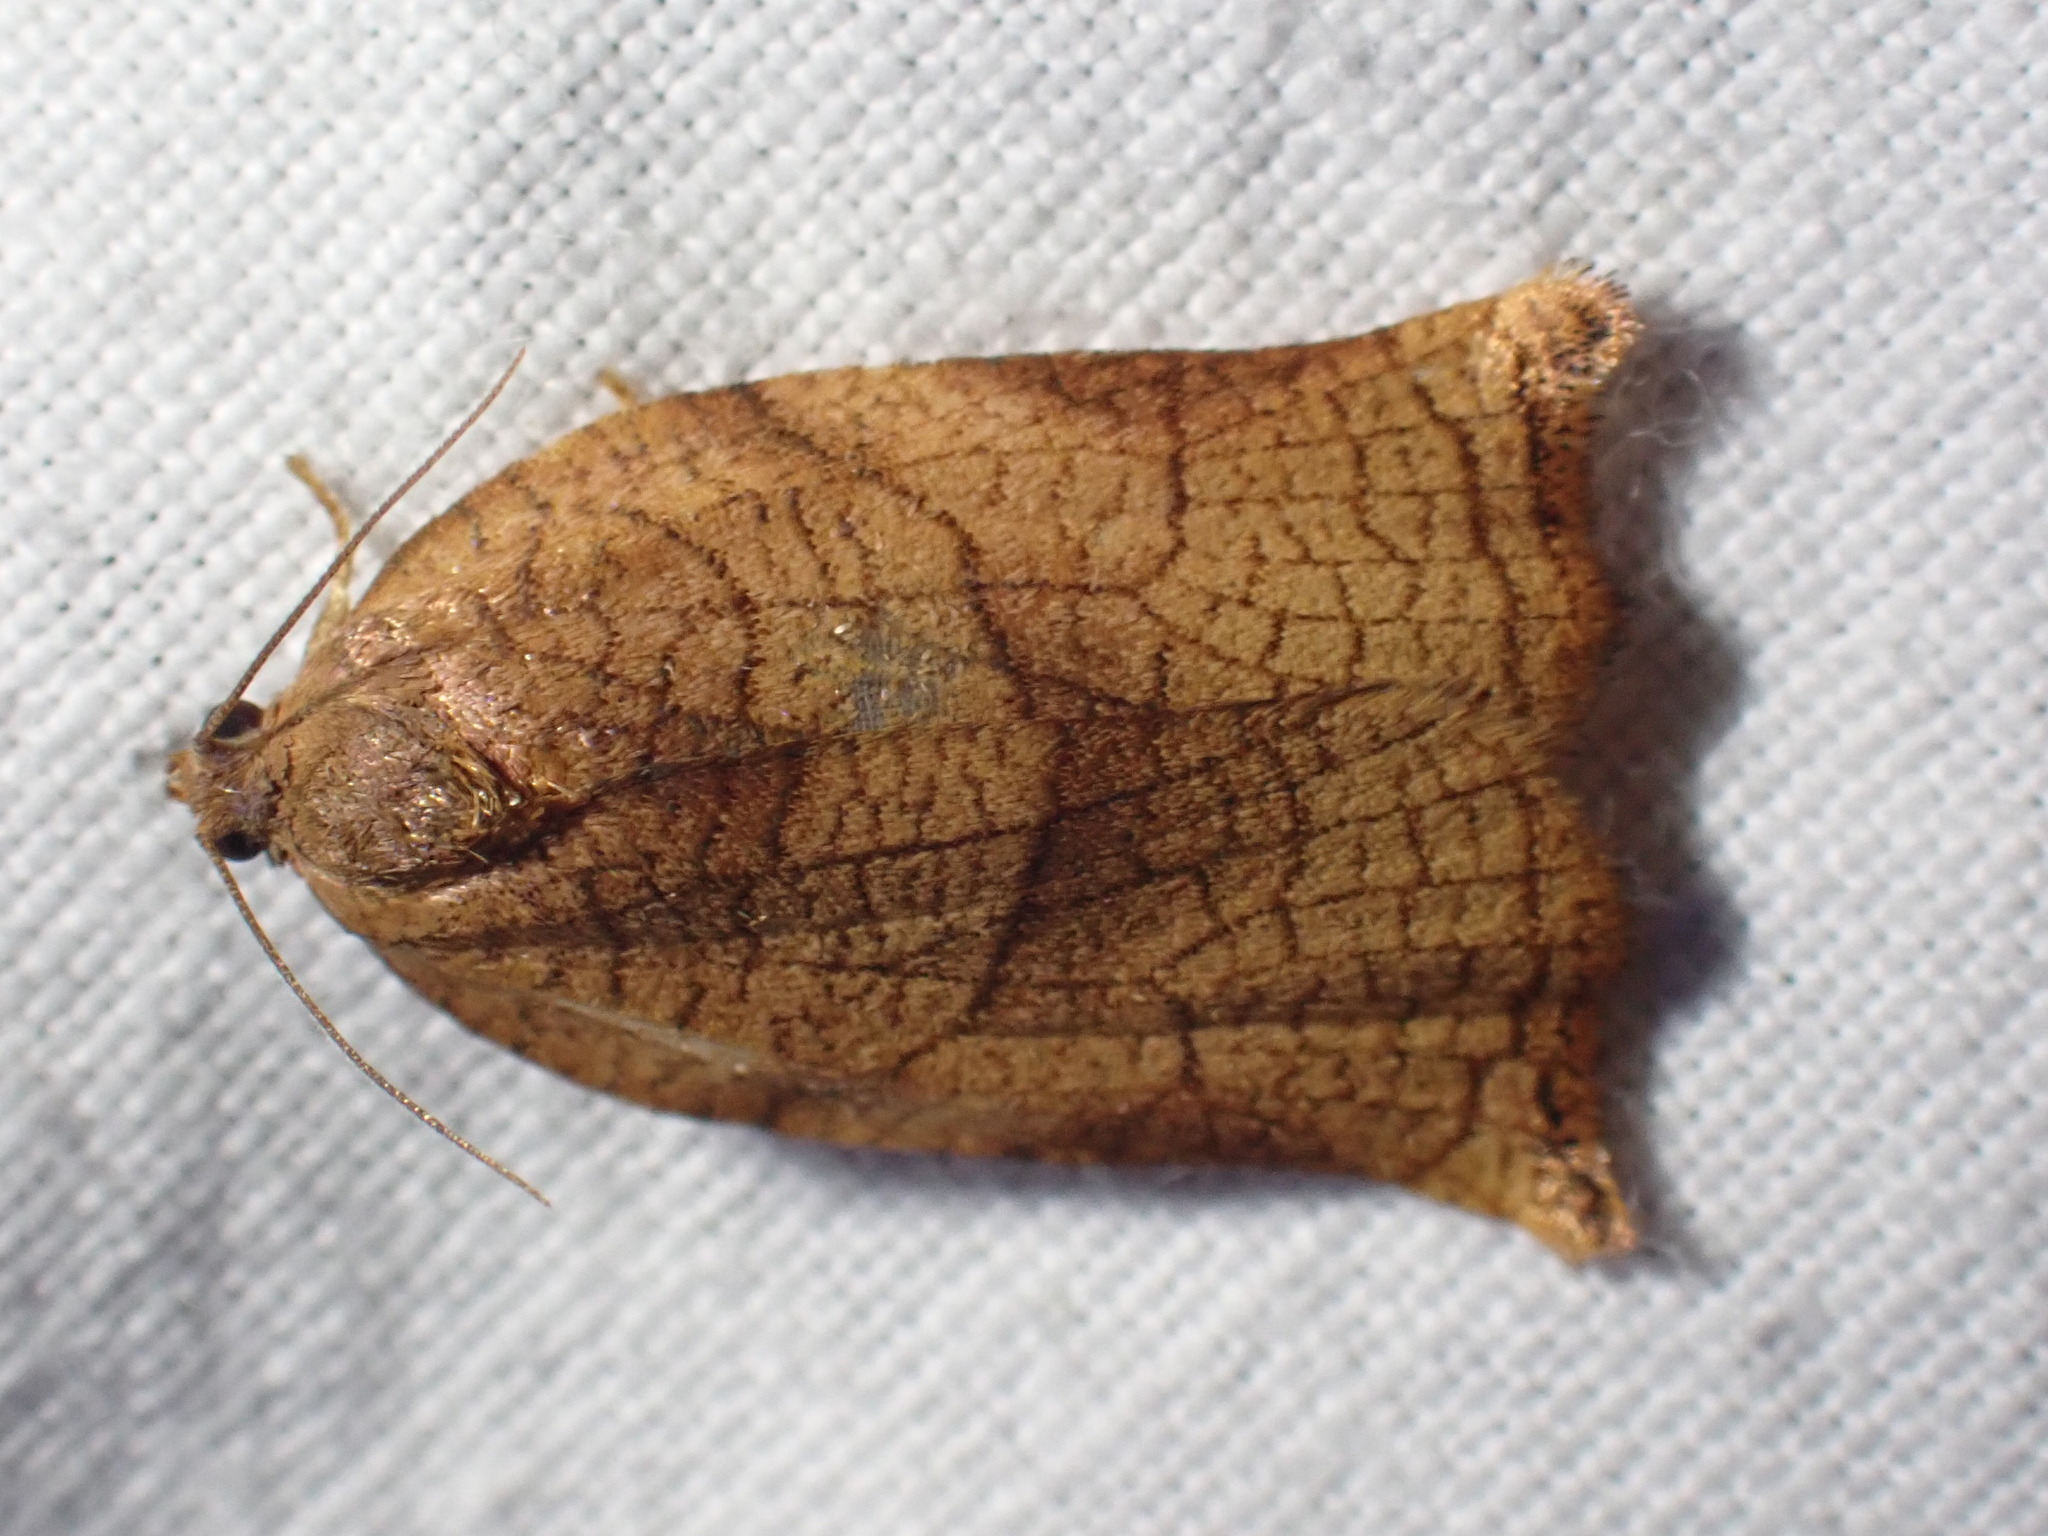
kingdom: Animalia
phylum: Arthropoda
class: Insecta
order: Lepidoptera
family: Tortricidae
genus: Archips
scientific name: Archips podana
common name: Large fruit-tree tortrix
